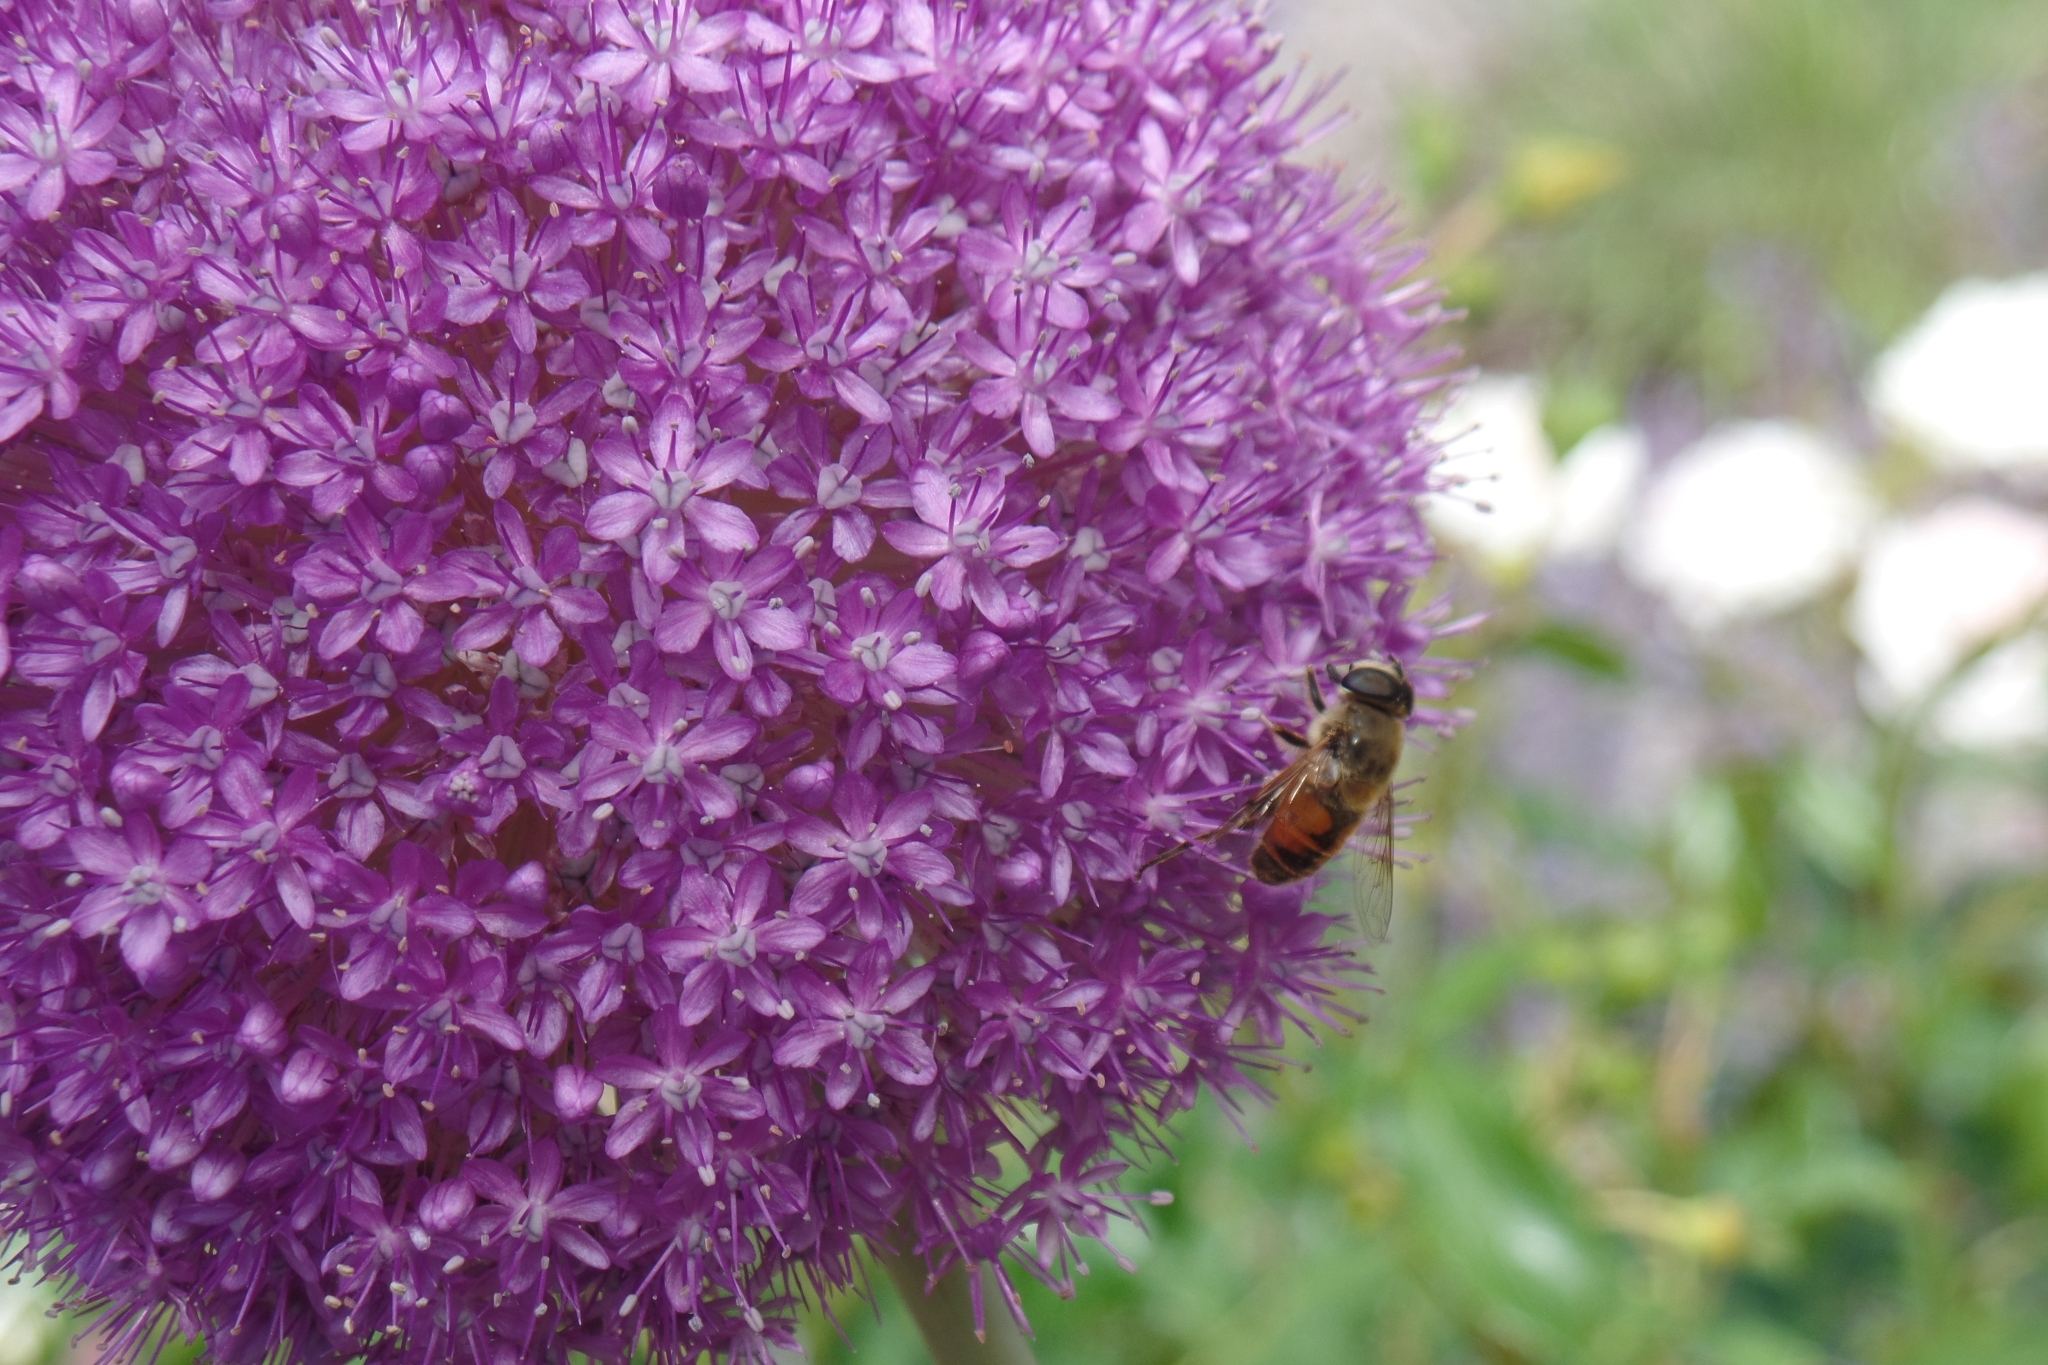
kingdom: Animalia
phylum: Arthropoda
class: Insecta
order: Diptera
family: Syrphidae
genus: Eristalis
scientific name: Eristalis tenax
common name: Drone fly
